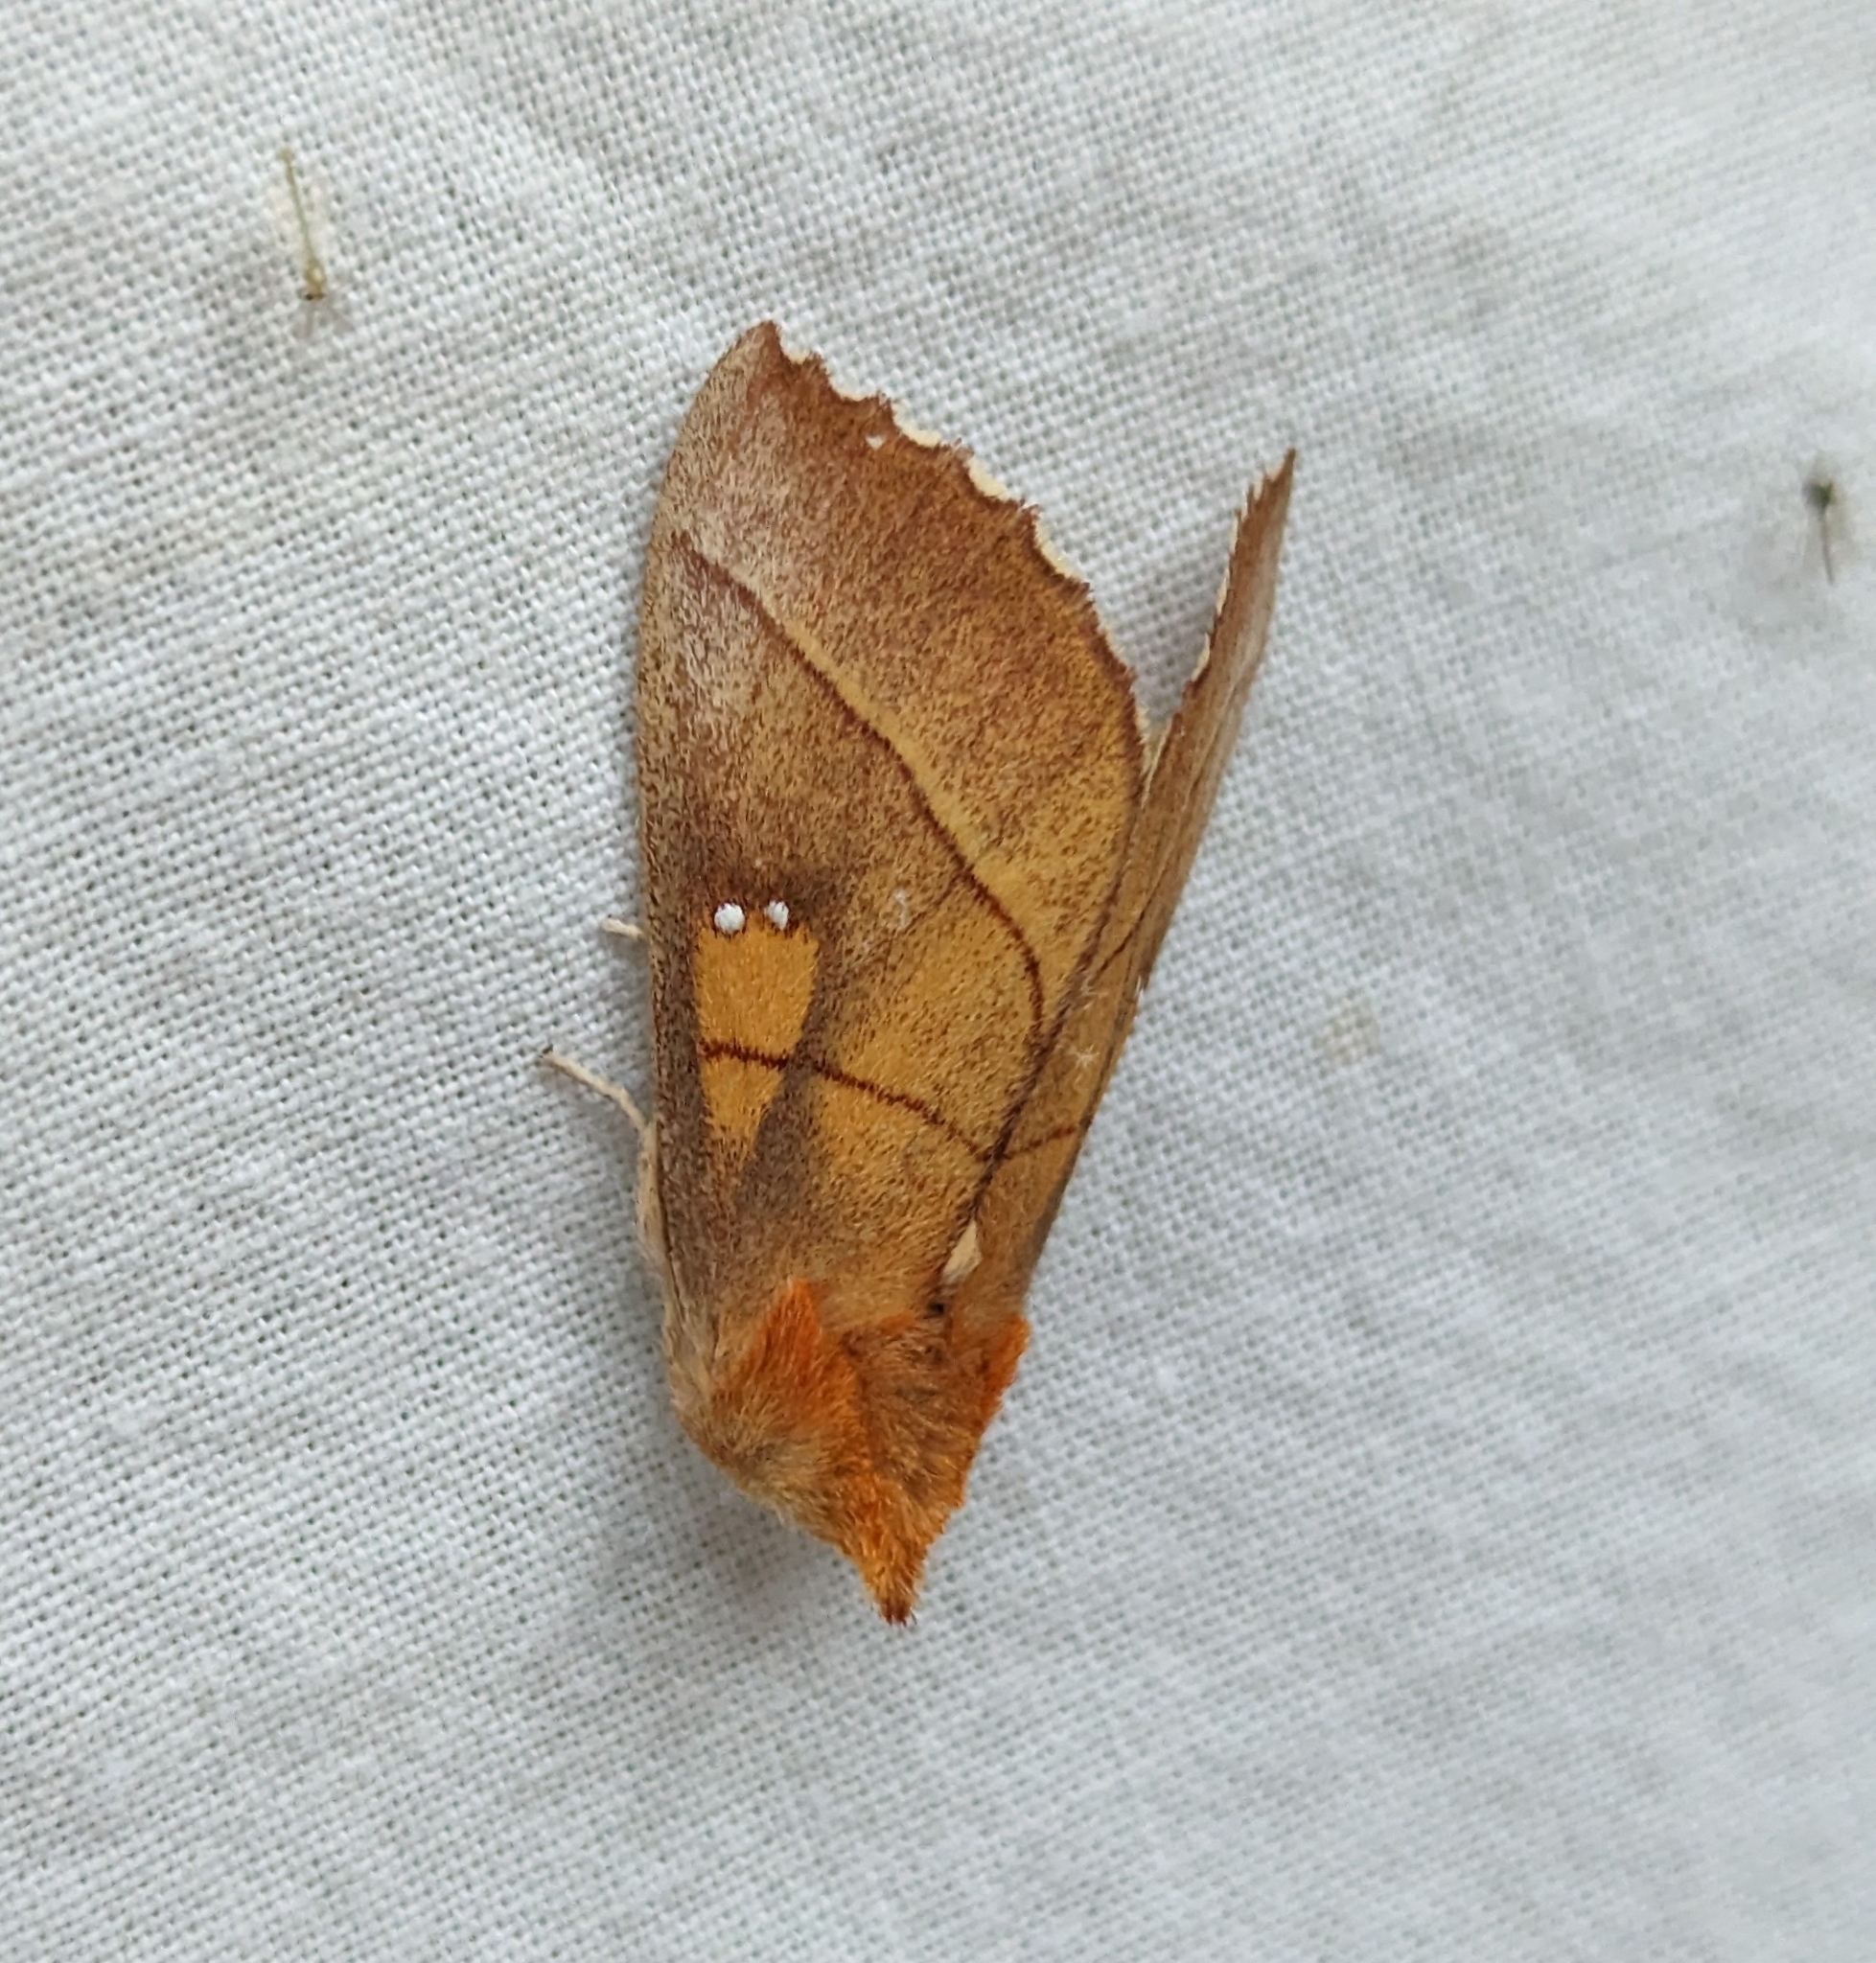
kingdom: Animalia
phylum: Arthropoda
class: Insecta
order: Lepidoptera
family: Notodontidae
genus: Nadata
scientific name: Nadata gibbosa
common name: White-dotted prominent
